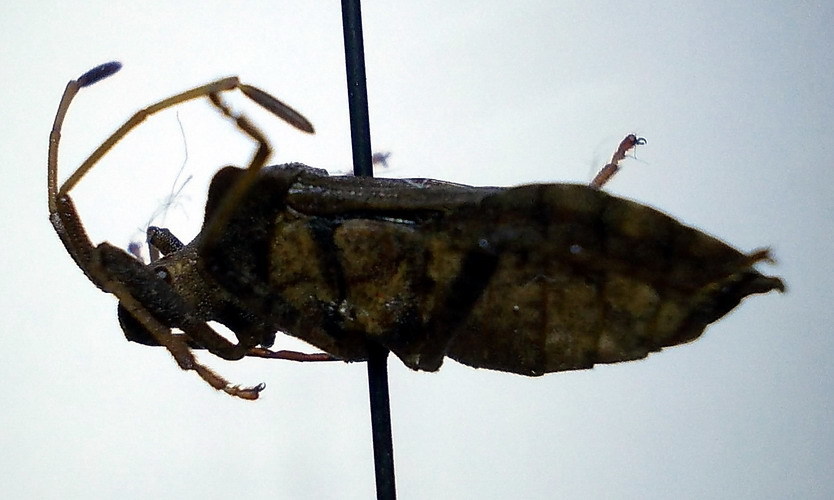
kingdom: Animalia
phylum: Arthropoda
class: Insecta
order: Hemiptera
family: Coreidae
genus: Coreus
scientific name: Coreus marginatus
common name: Dock bug
